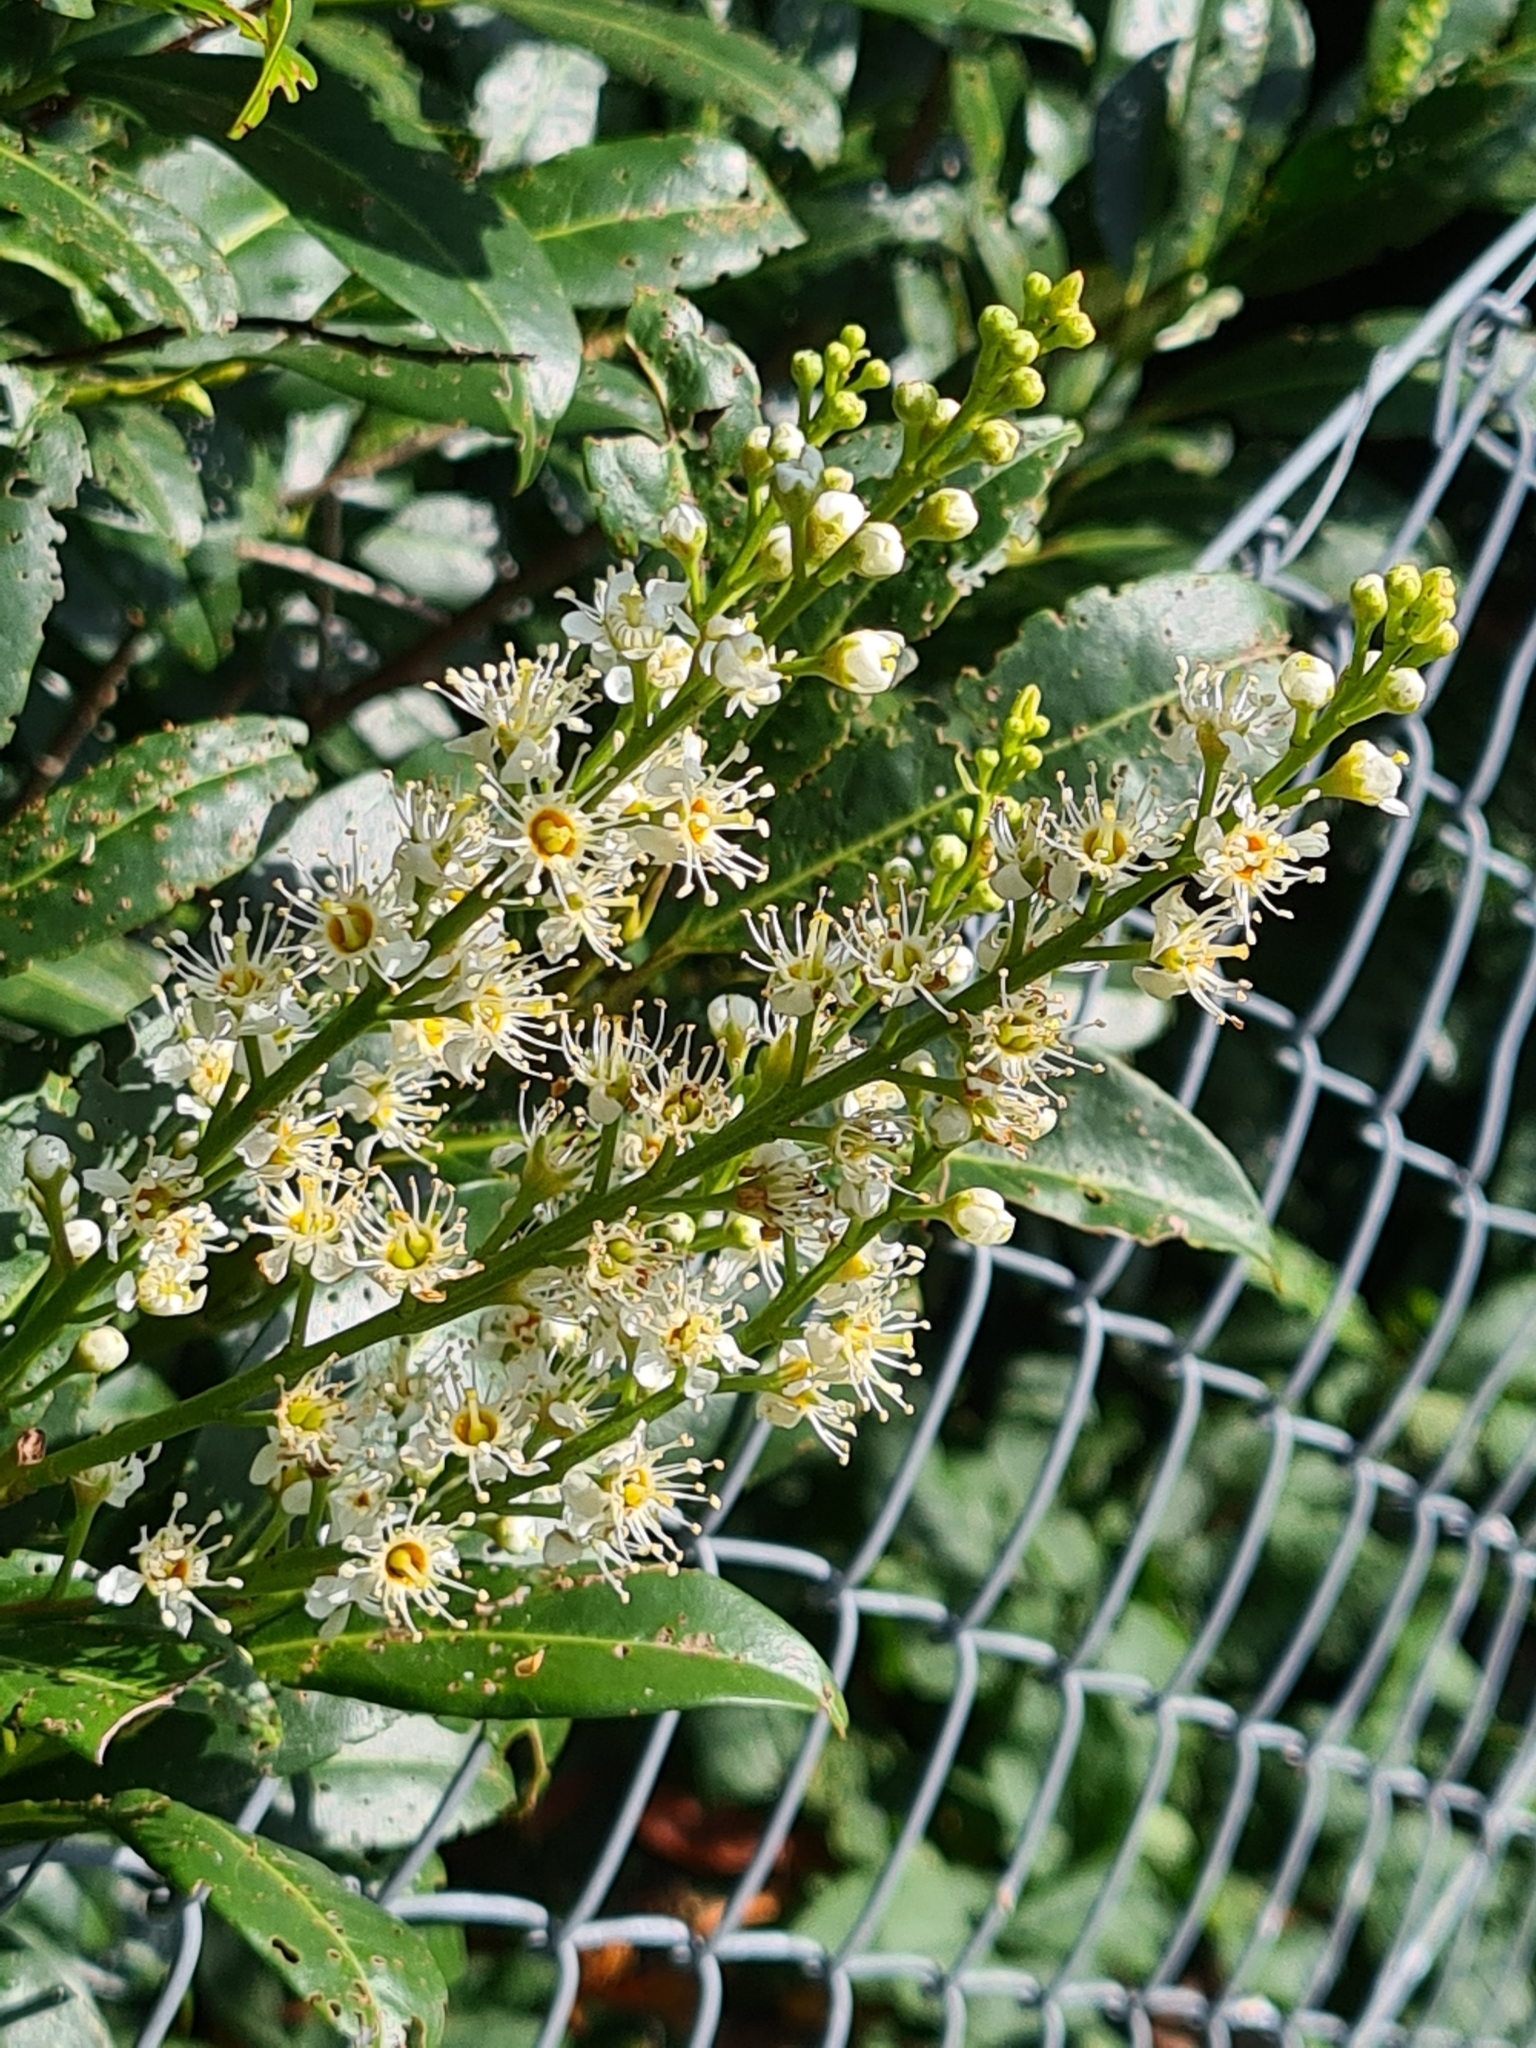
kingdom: Plantae
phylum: Tracheophyta
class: Magnoliopsida
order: Rosales
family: Rosaceae
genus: Prunus
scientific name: Prunus laurocerasus
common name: Cherry laurel
